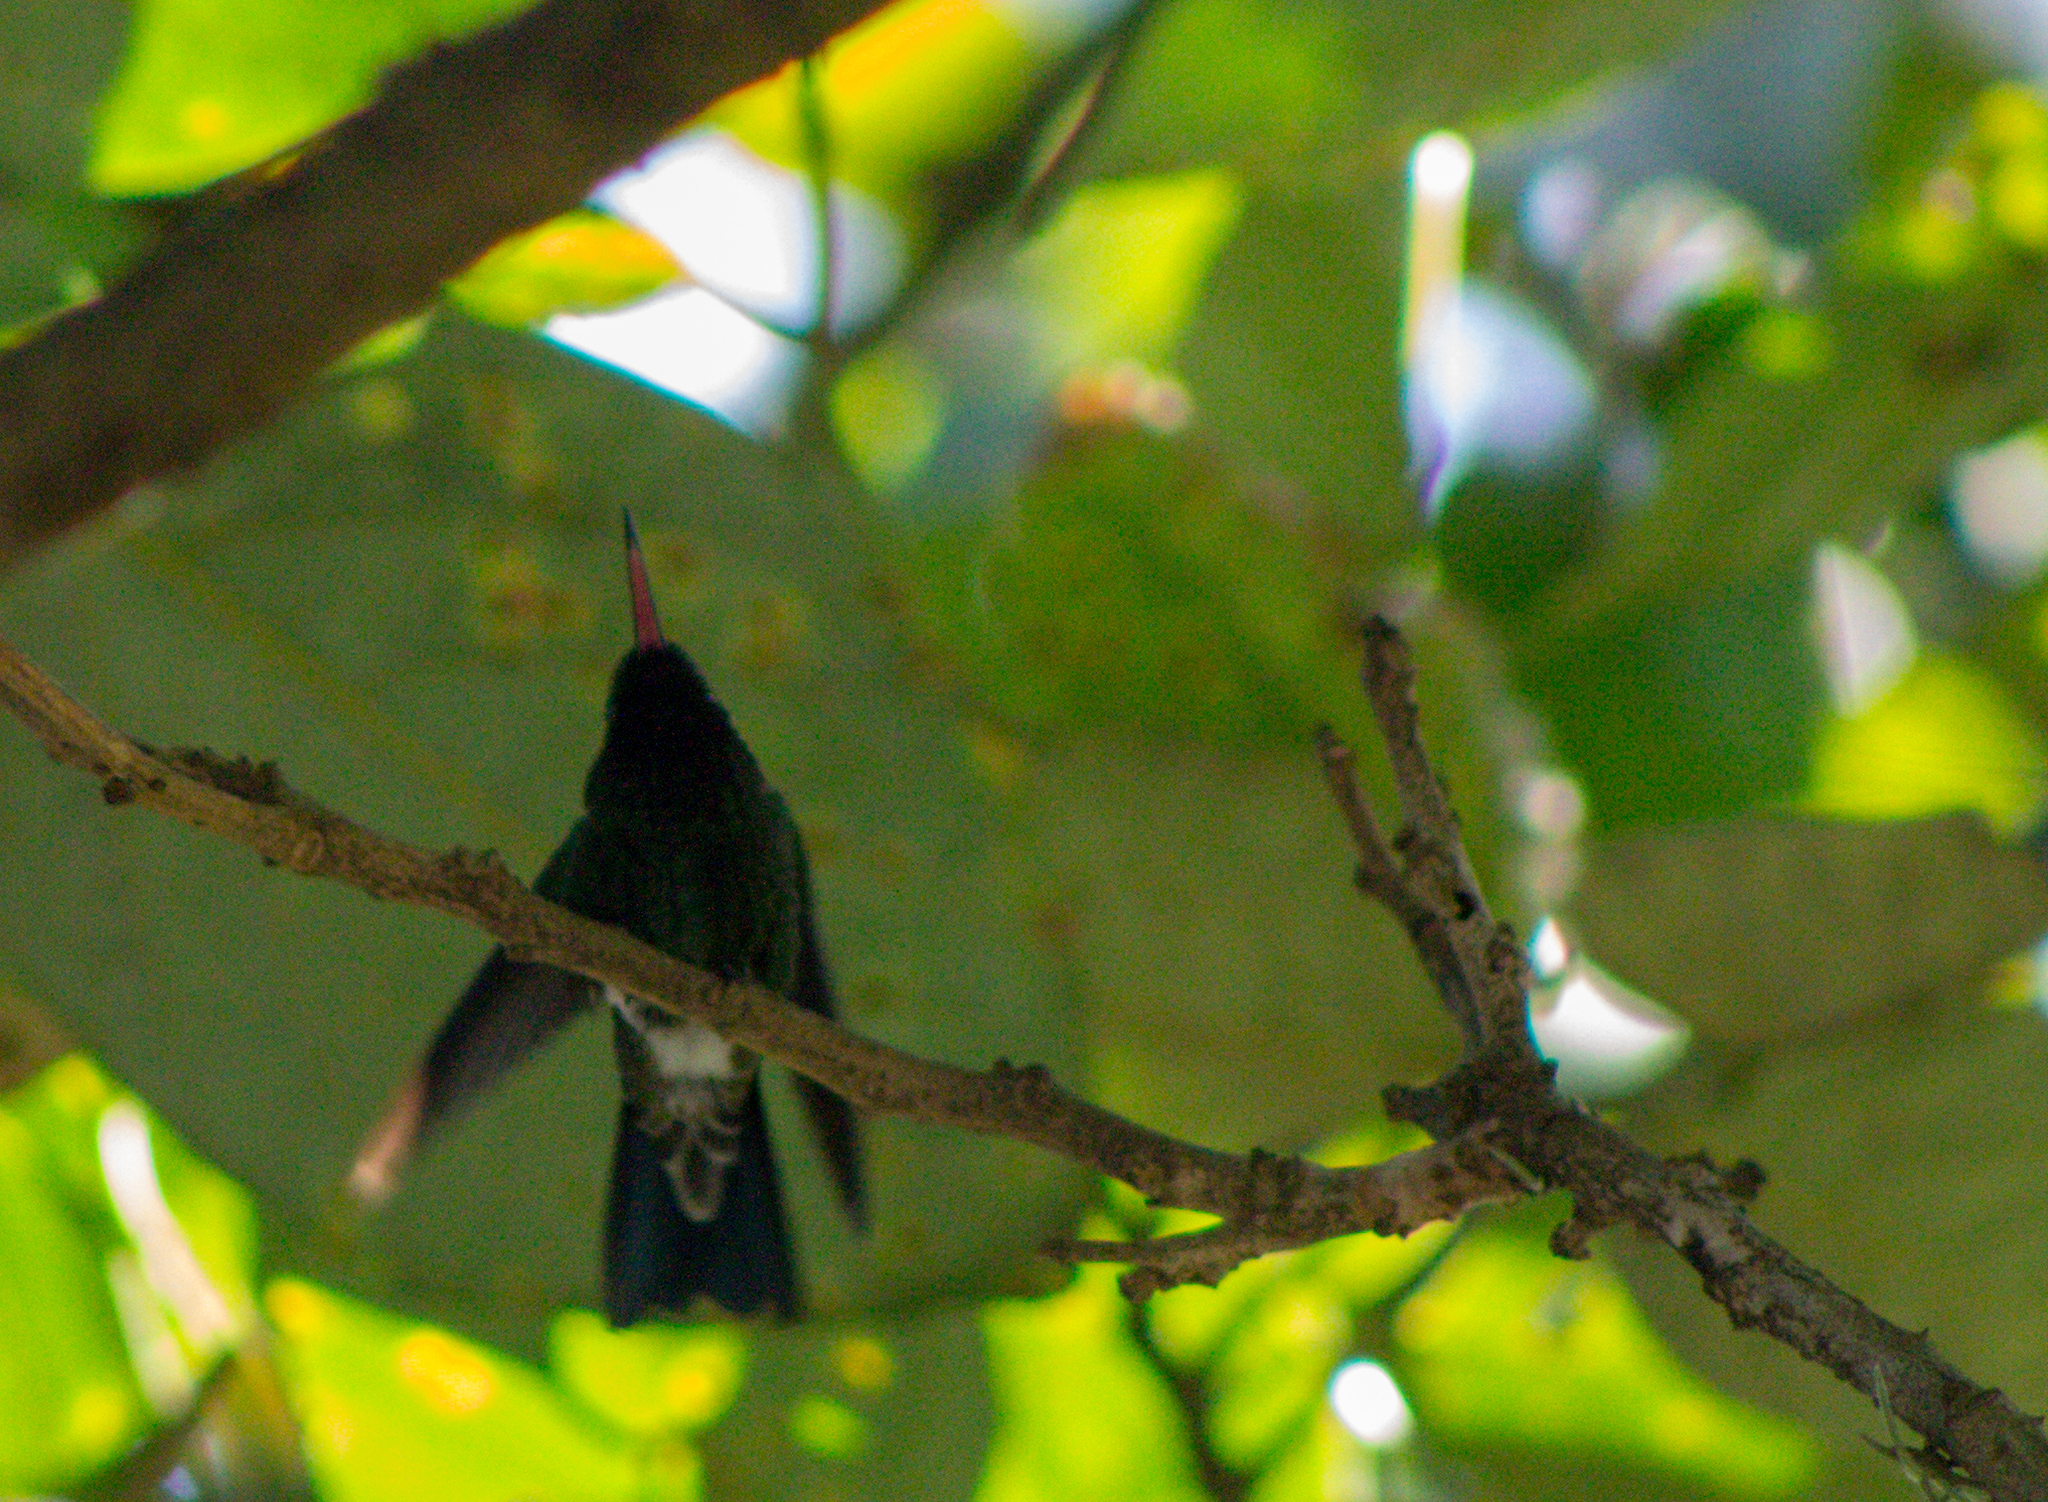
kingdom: Animalia
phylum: Chordata
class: Aves
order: Apodiformes
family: Trochilidae
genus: Saucerottia
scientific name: Saucerottia saucerottei
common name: Steely-vented hummingbird
